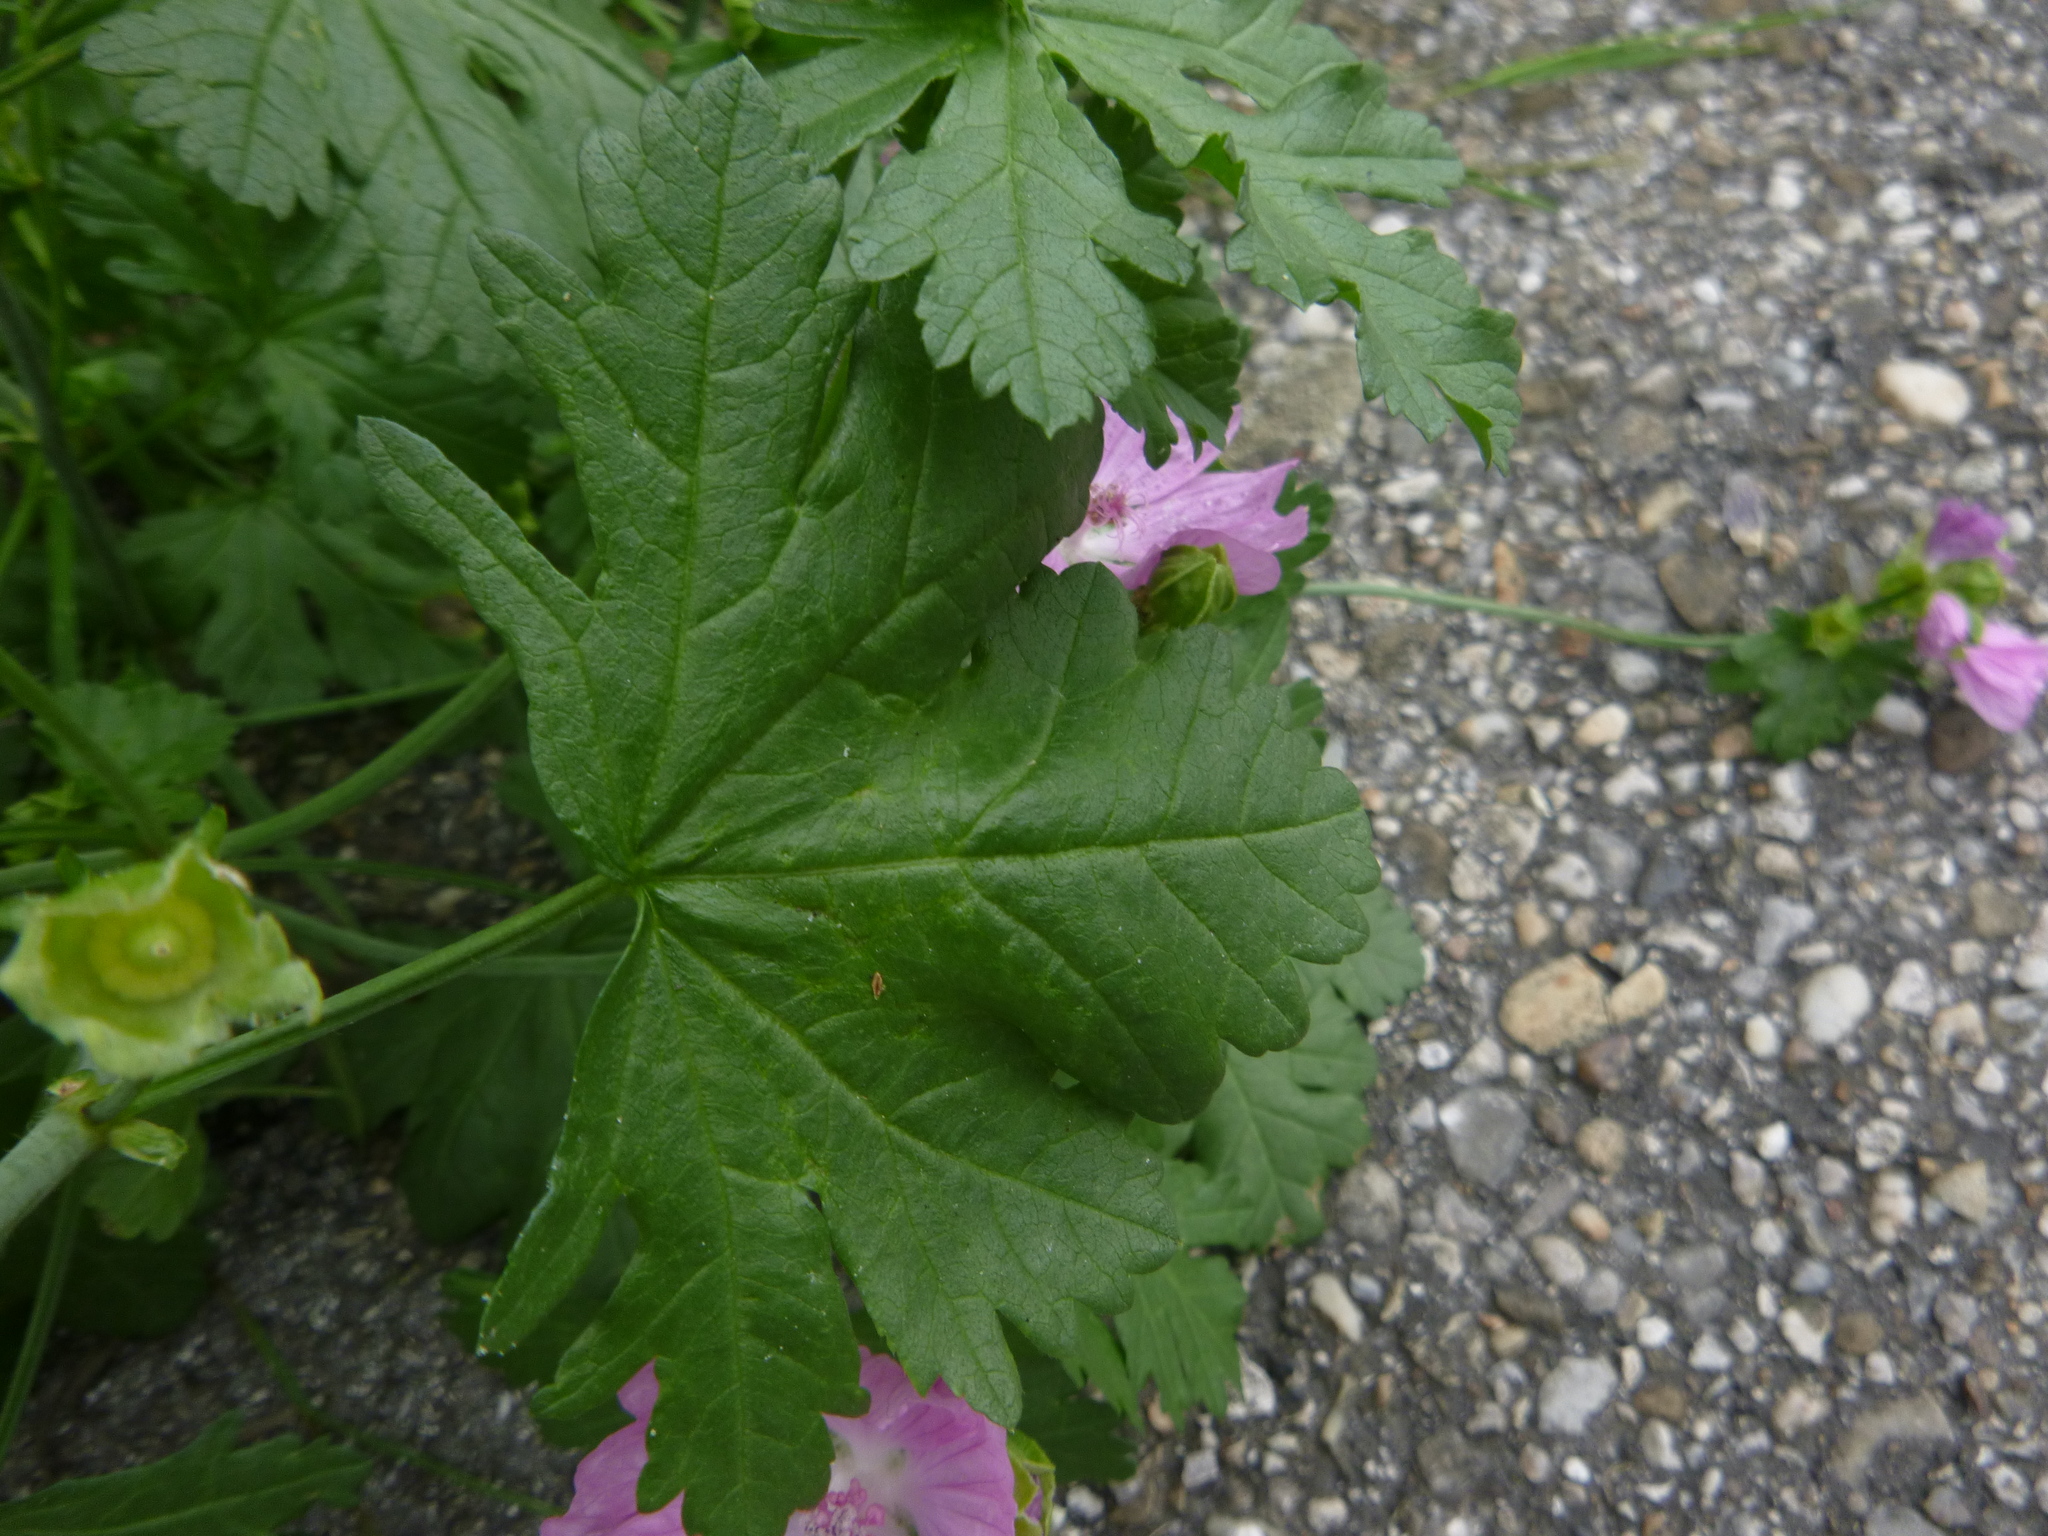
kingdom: Plantae
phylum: Tracheophyta
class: Magnoliopsida
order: Malvales
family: Malvaceae
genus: Malva
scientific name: Malva moschata
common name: Musk mallow
